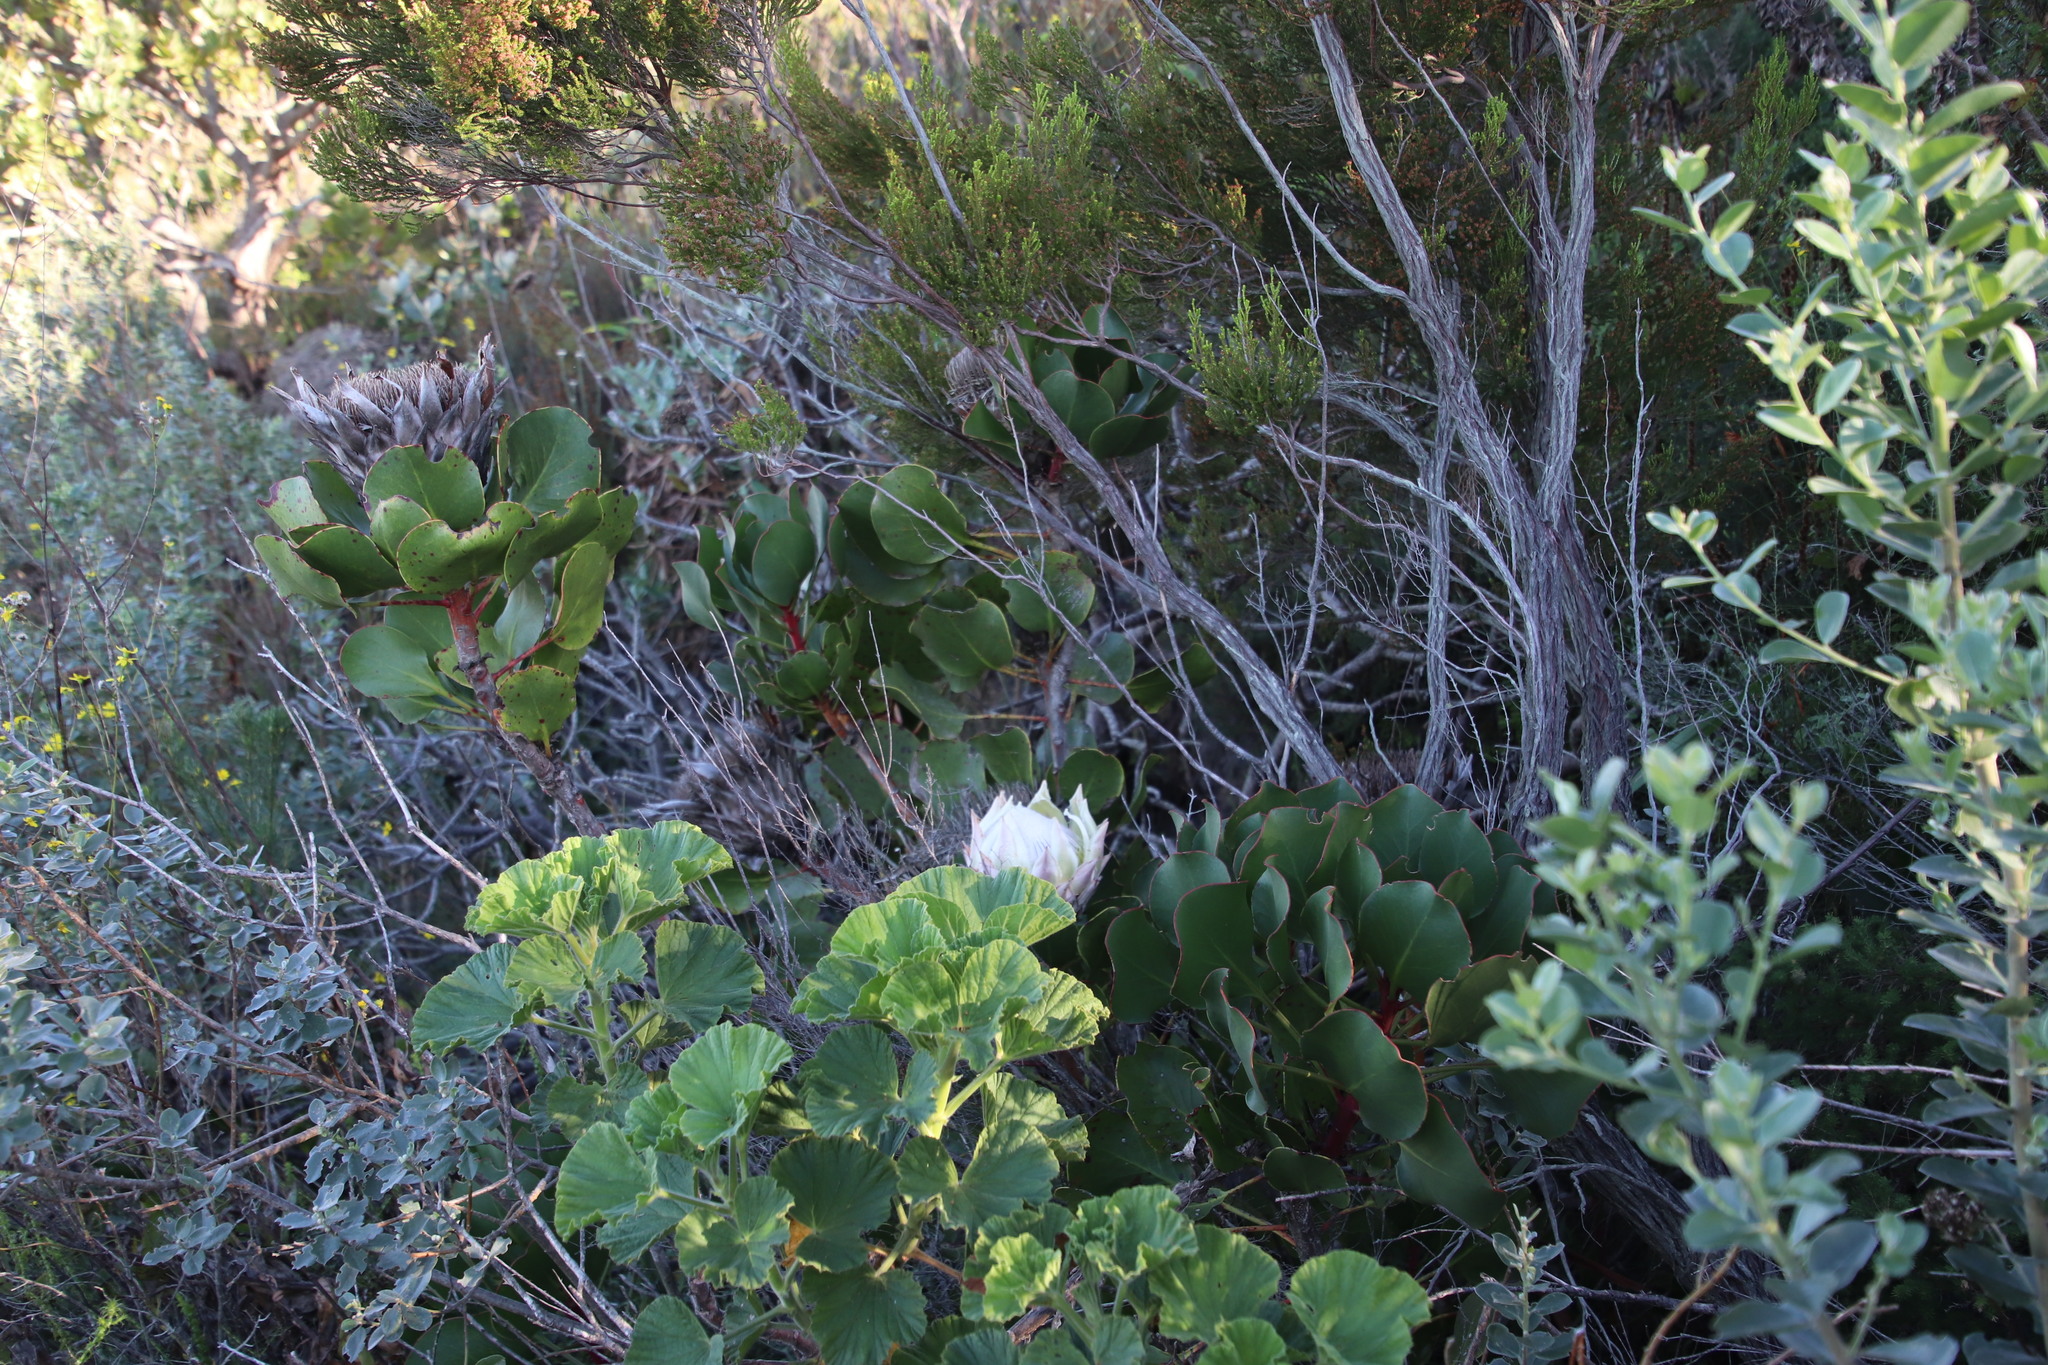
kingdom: Plantae
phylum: Tracheophyta
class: Magnoliopsida
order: Proteales
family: Proteaceae
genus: Protea
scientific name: Protea cynaroides
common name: King protea
